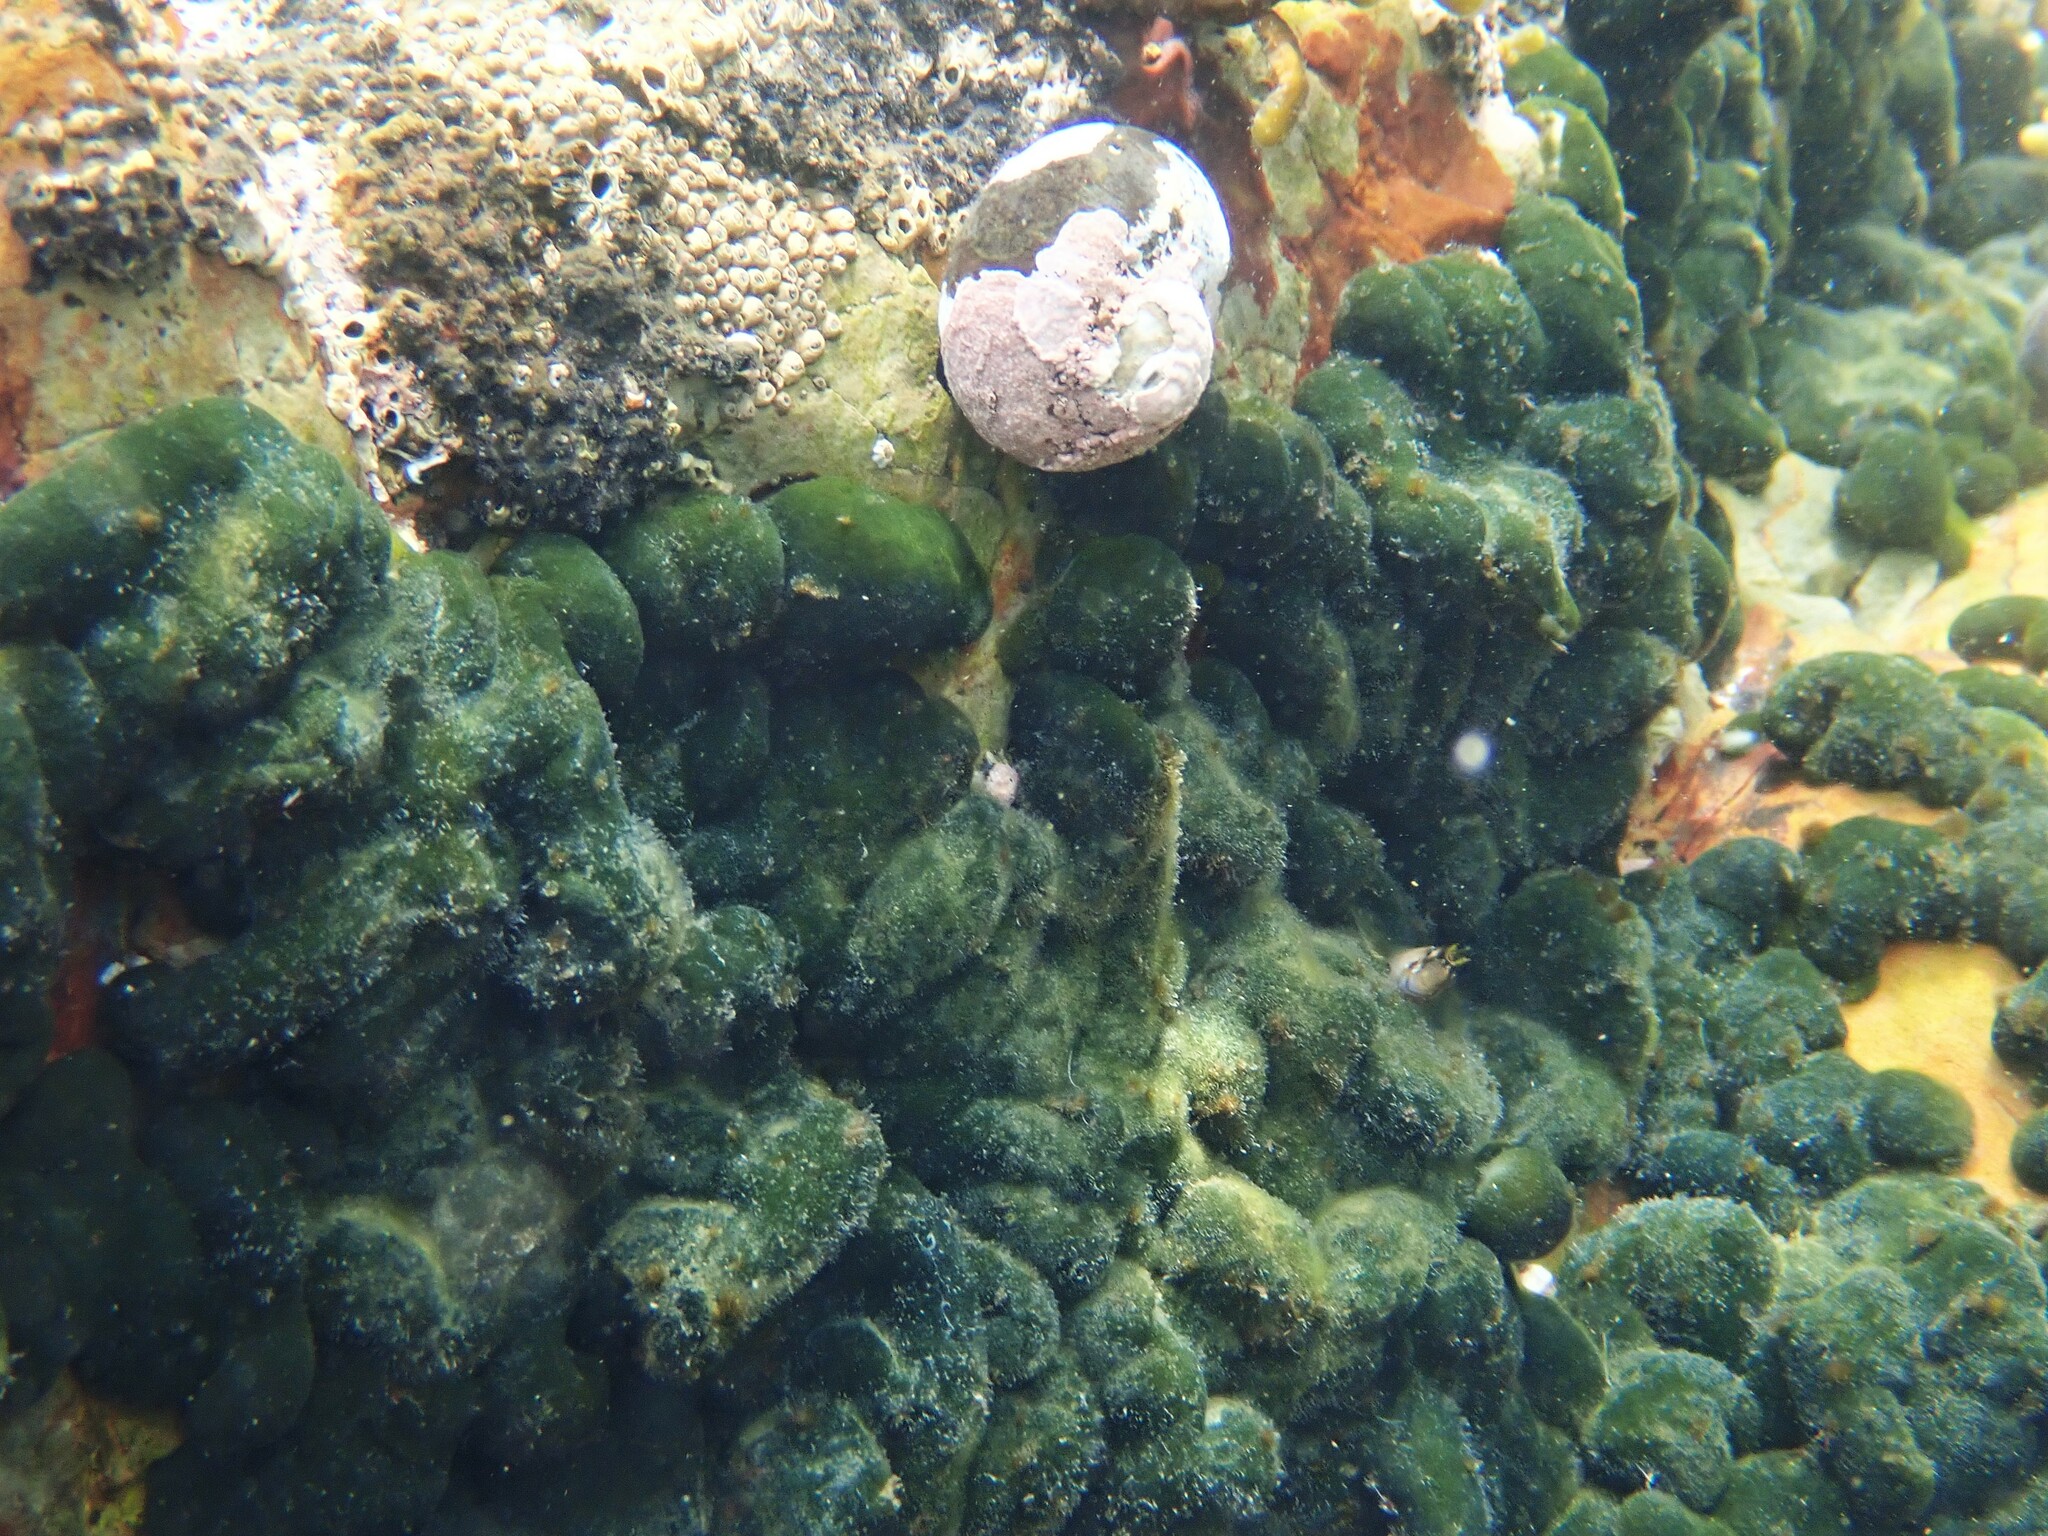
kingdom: Animalia
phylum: Chordata
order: Perciformes
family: Blenniidae
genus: Parablennius
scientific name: Parablennius laticlavius
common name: Crested blenny
